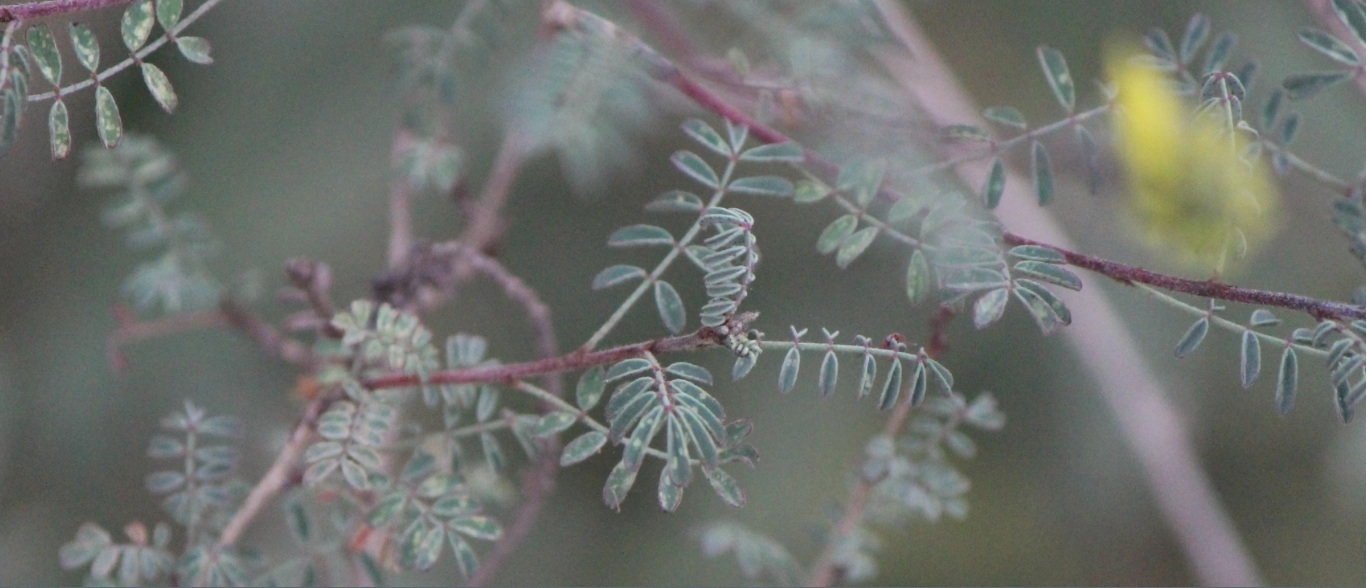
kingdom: Plantae
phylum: Tracheophyta
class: Magnoliopsida
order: Fabales
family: Fabaceae
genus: Dalea
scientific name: Dalea lutea
